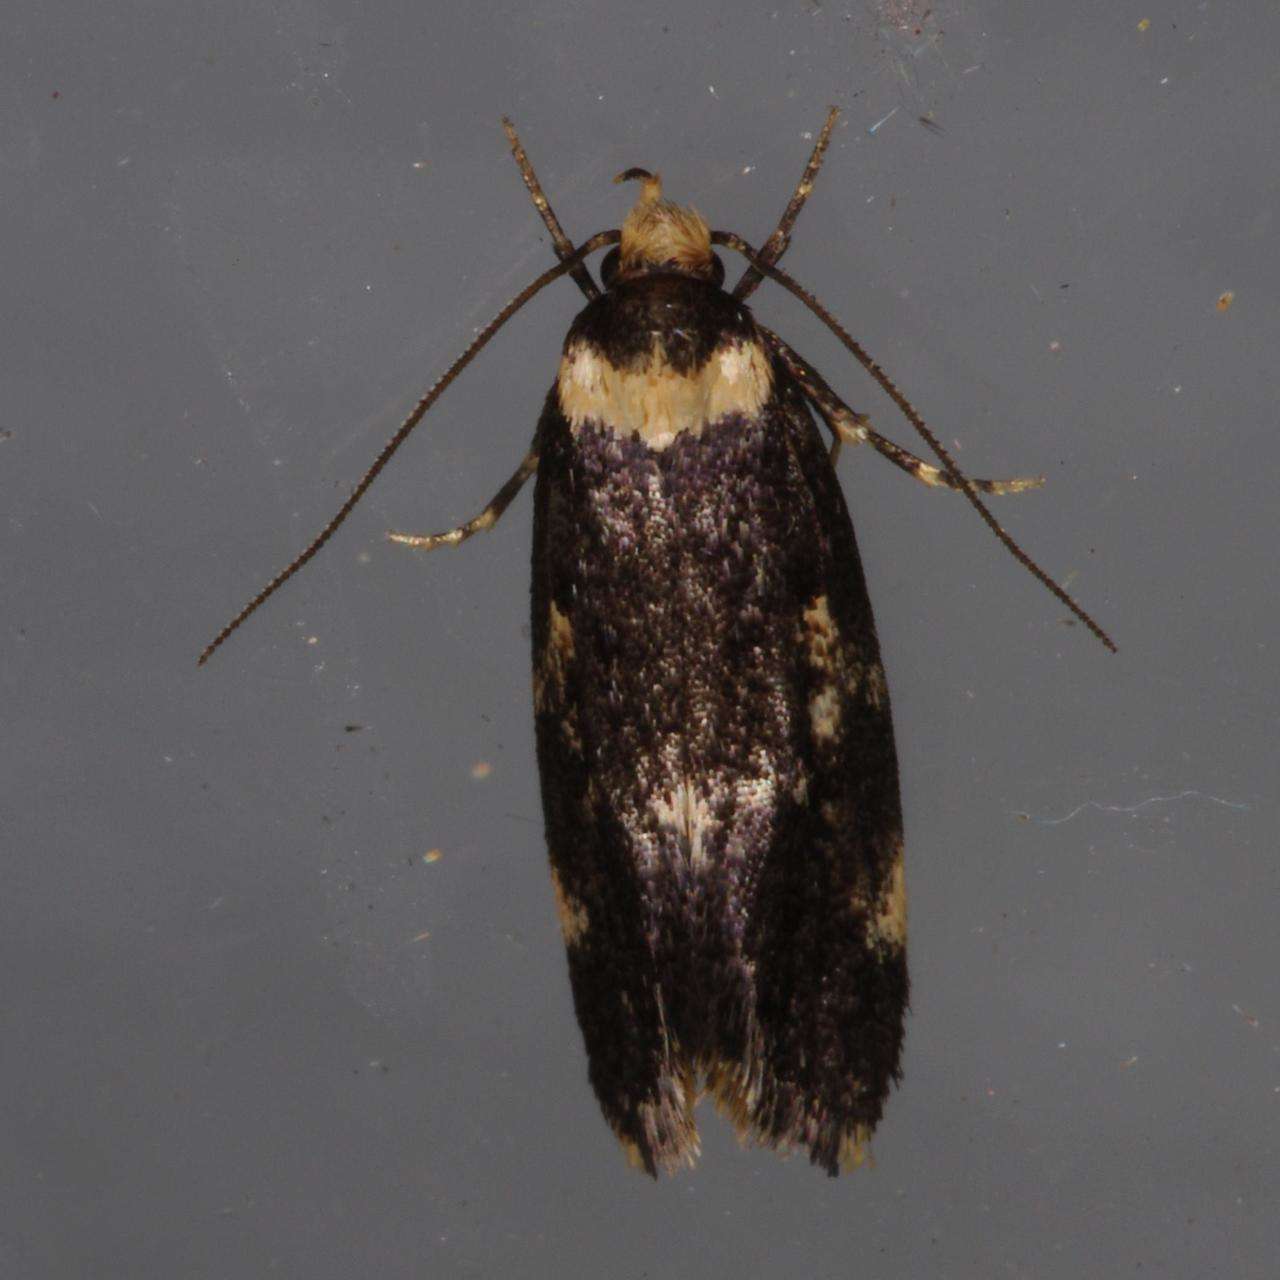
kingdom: Animalia
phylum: Arthropoda
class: Insecta
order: Lepidoptera
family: Oecophoridae
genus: Sphyrelata
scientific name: Sphyrelata amotella
